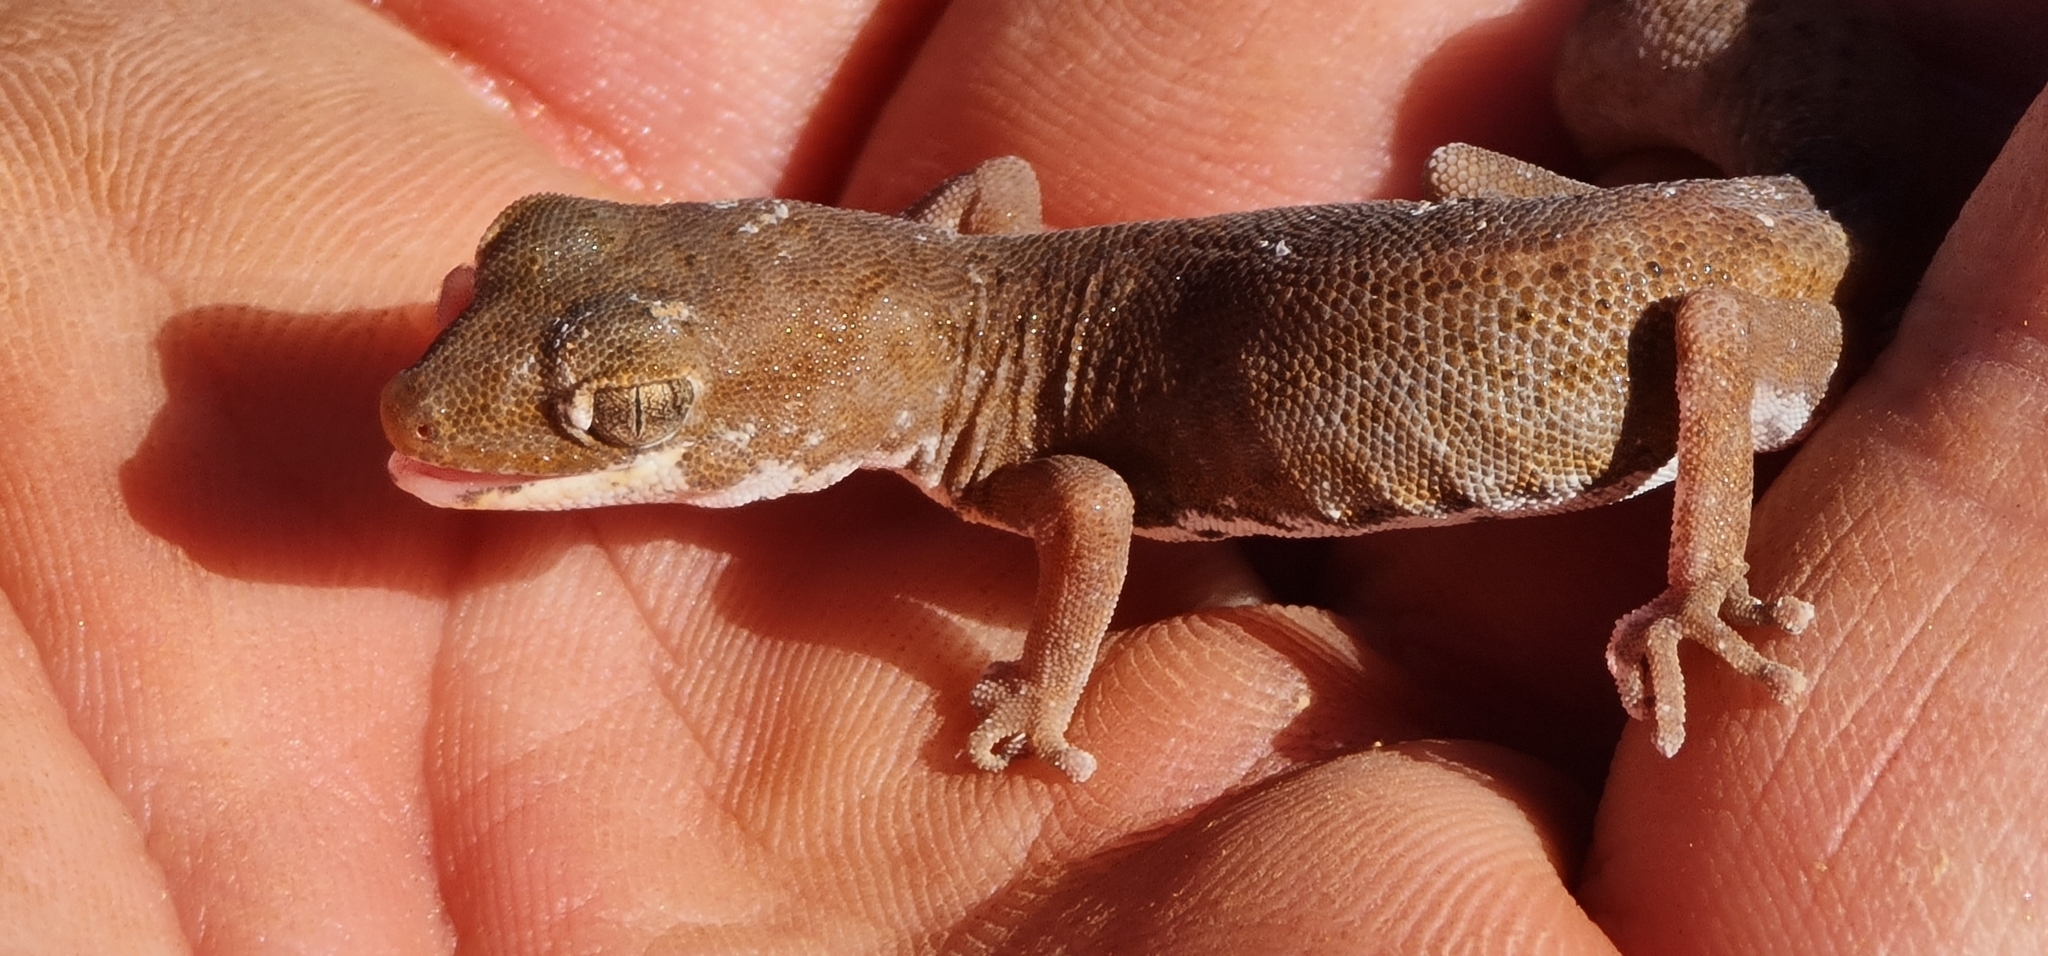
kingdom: Animalia
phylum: Chordata
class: Squamata
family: Diplodactylidae
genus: Diplodactylus
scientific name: Diplodactylus tessellatus
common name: Tesselated gecko
